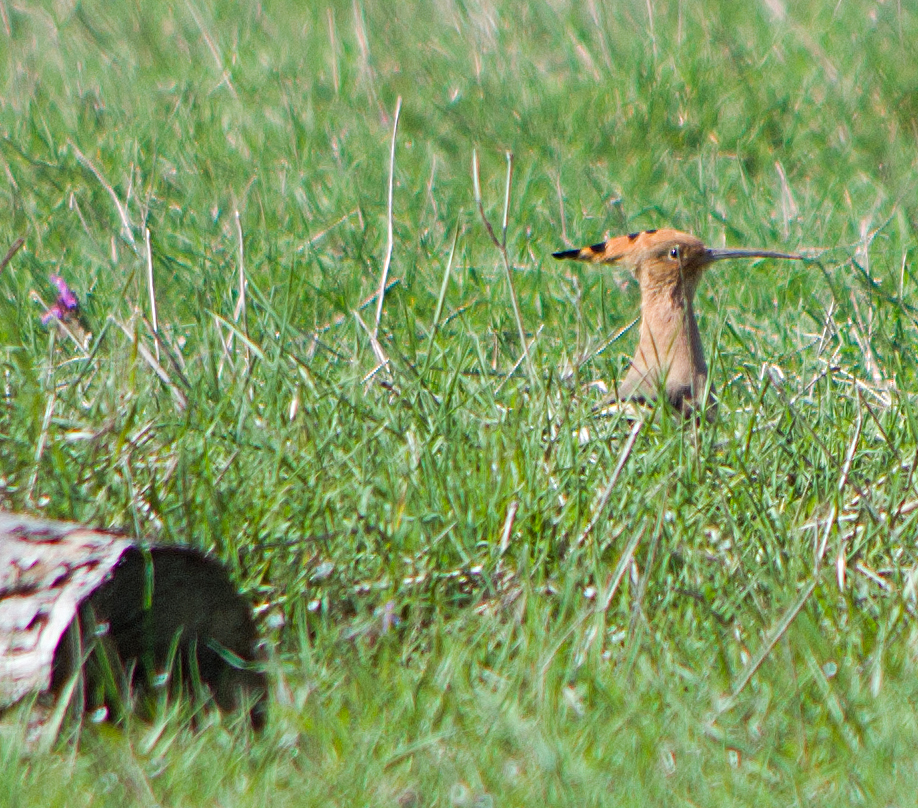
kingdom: Animalia
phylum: Chordata
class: Aves
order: Bucerotiformes
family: Upupidae
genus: Upupa
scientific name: Upupa epops
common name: Eurasian hoopoe
